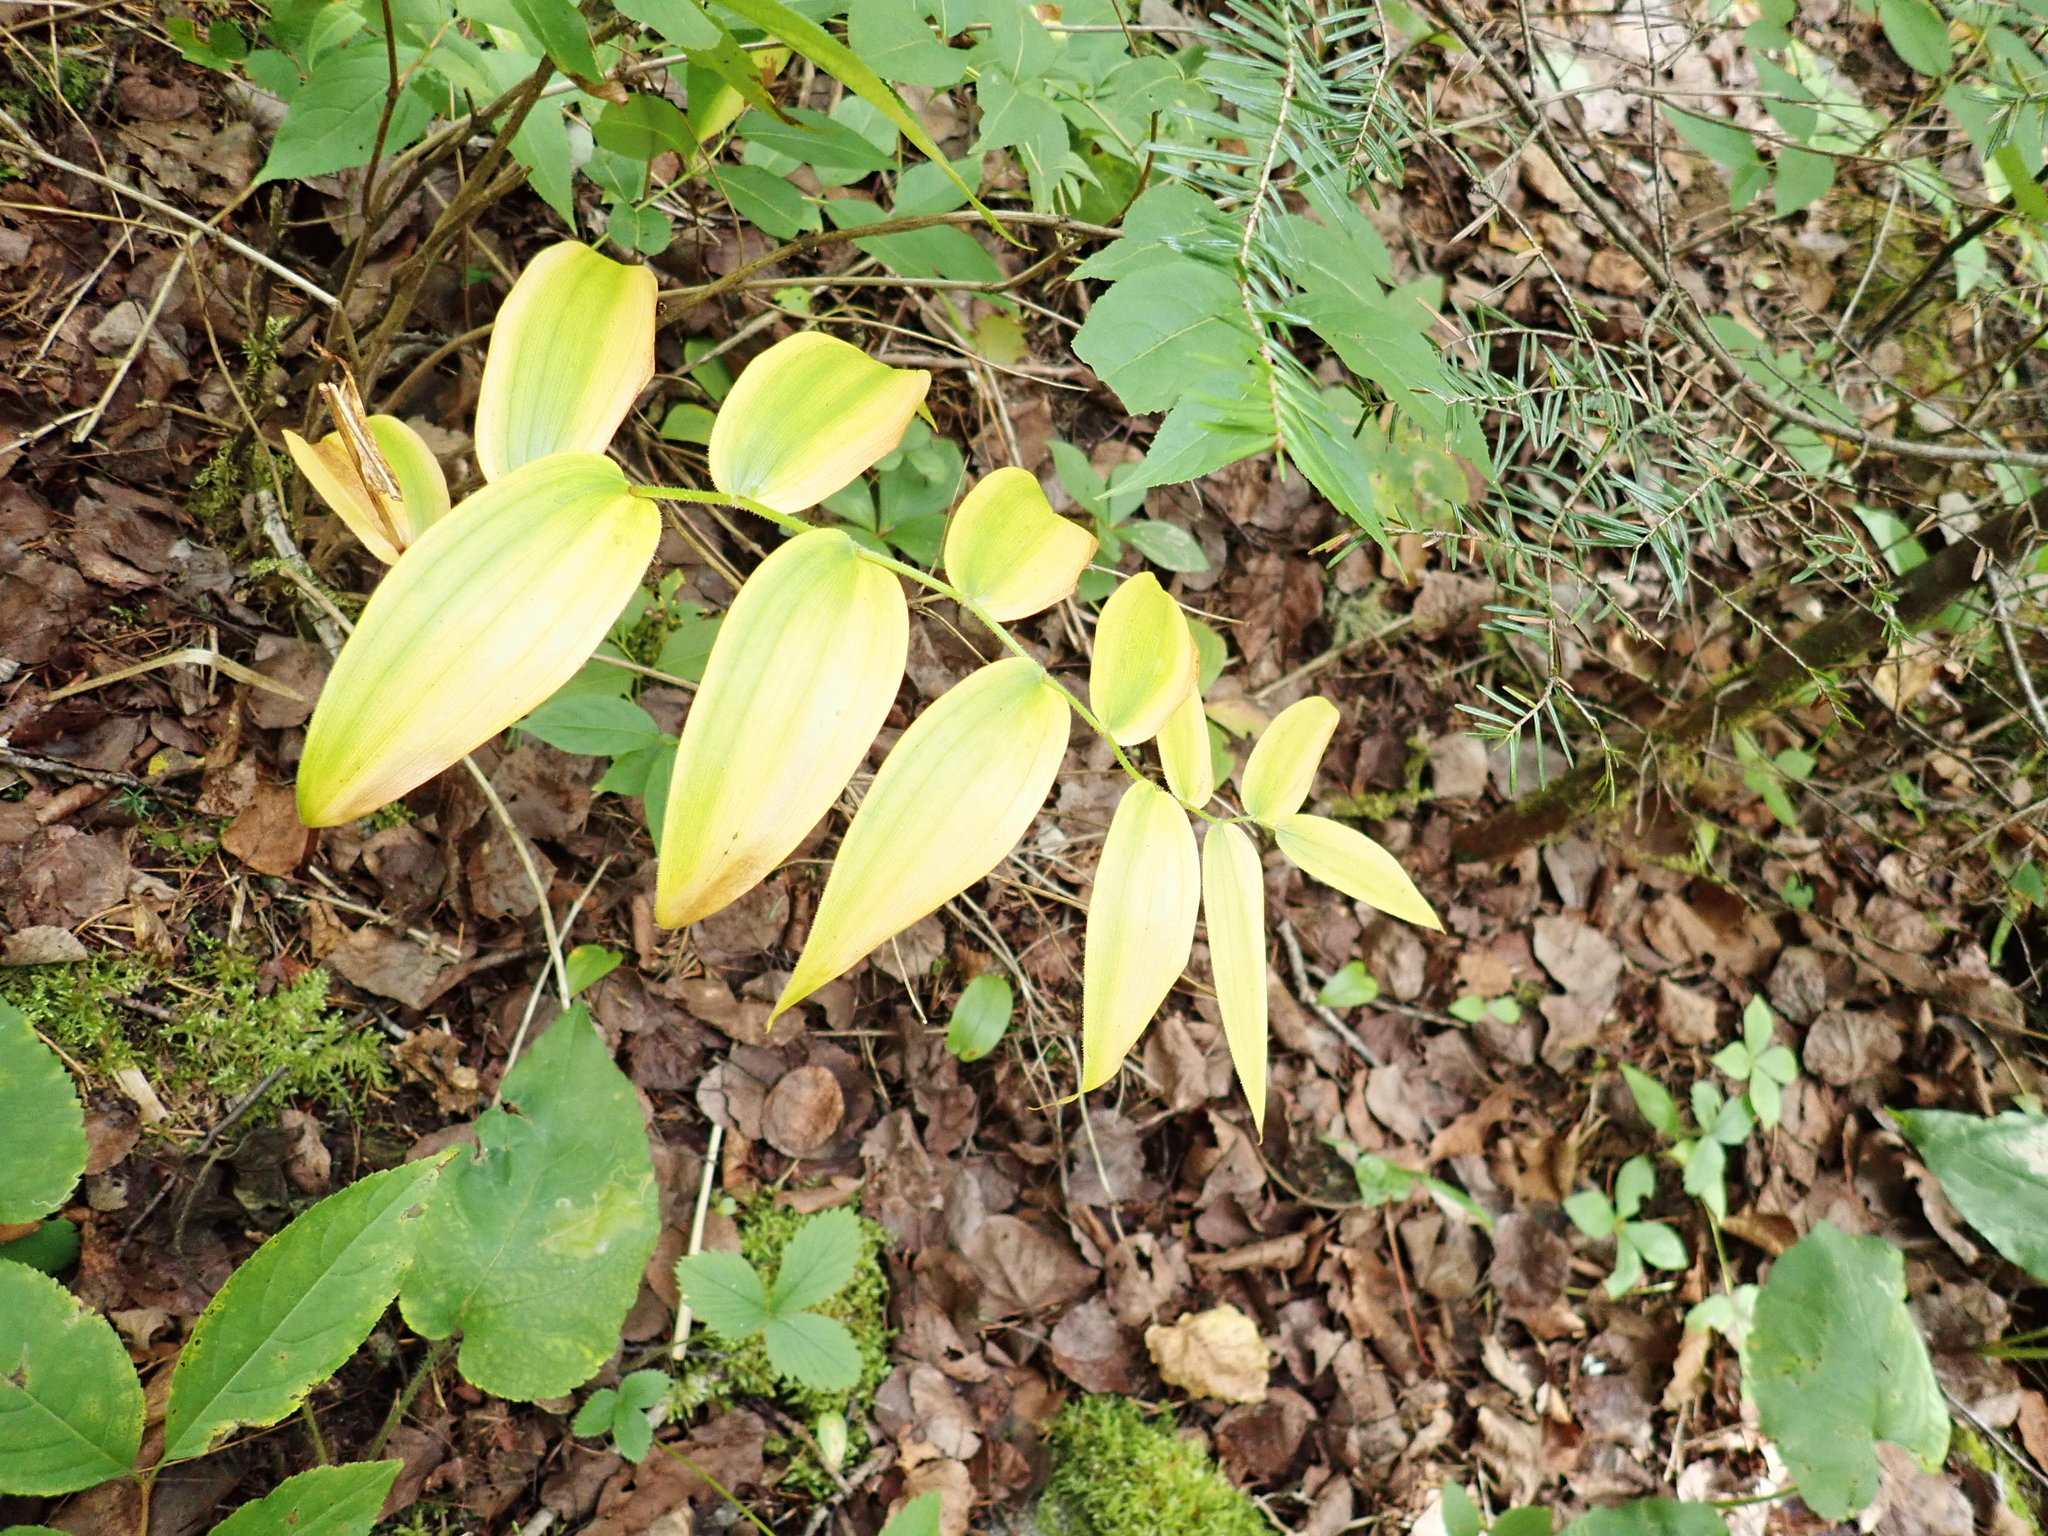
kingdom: Plantae
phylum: Tracheophyta
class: Liliopsida
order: Liliales
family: Liliaceae
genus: Streptopus
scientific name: Streptopus lanceolatus
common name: Rose mandarin
